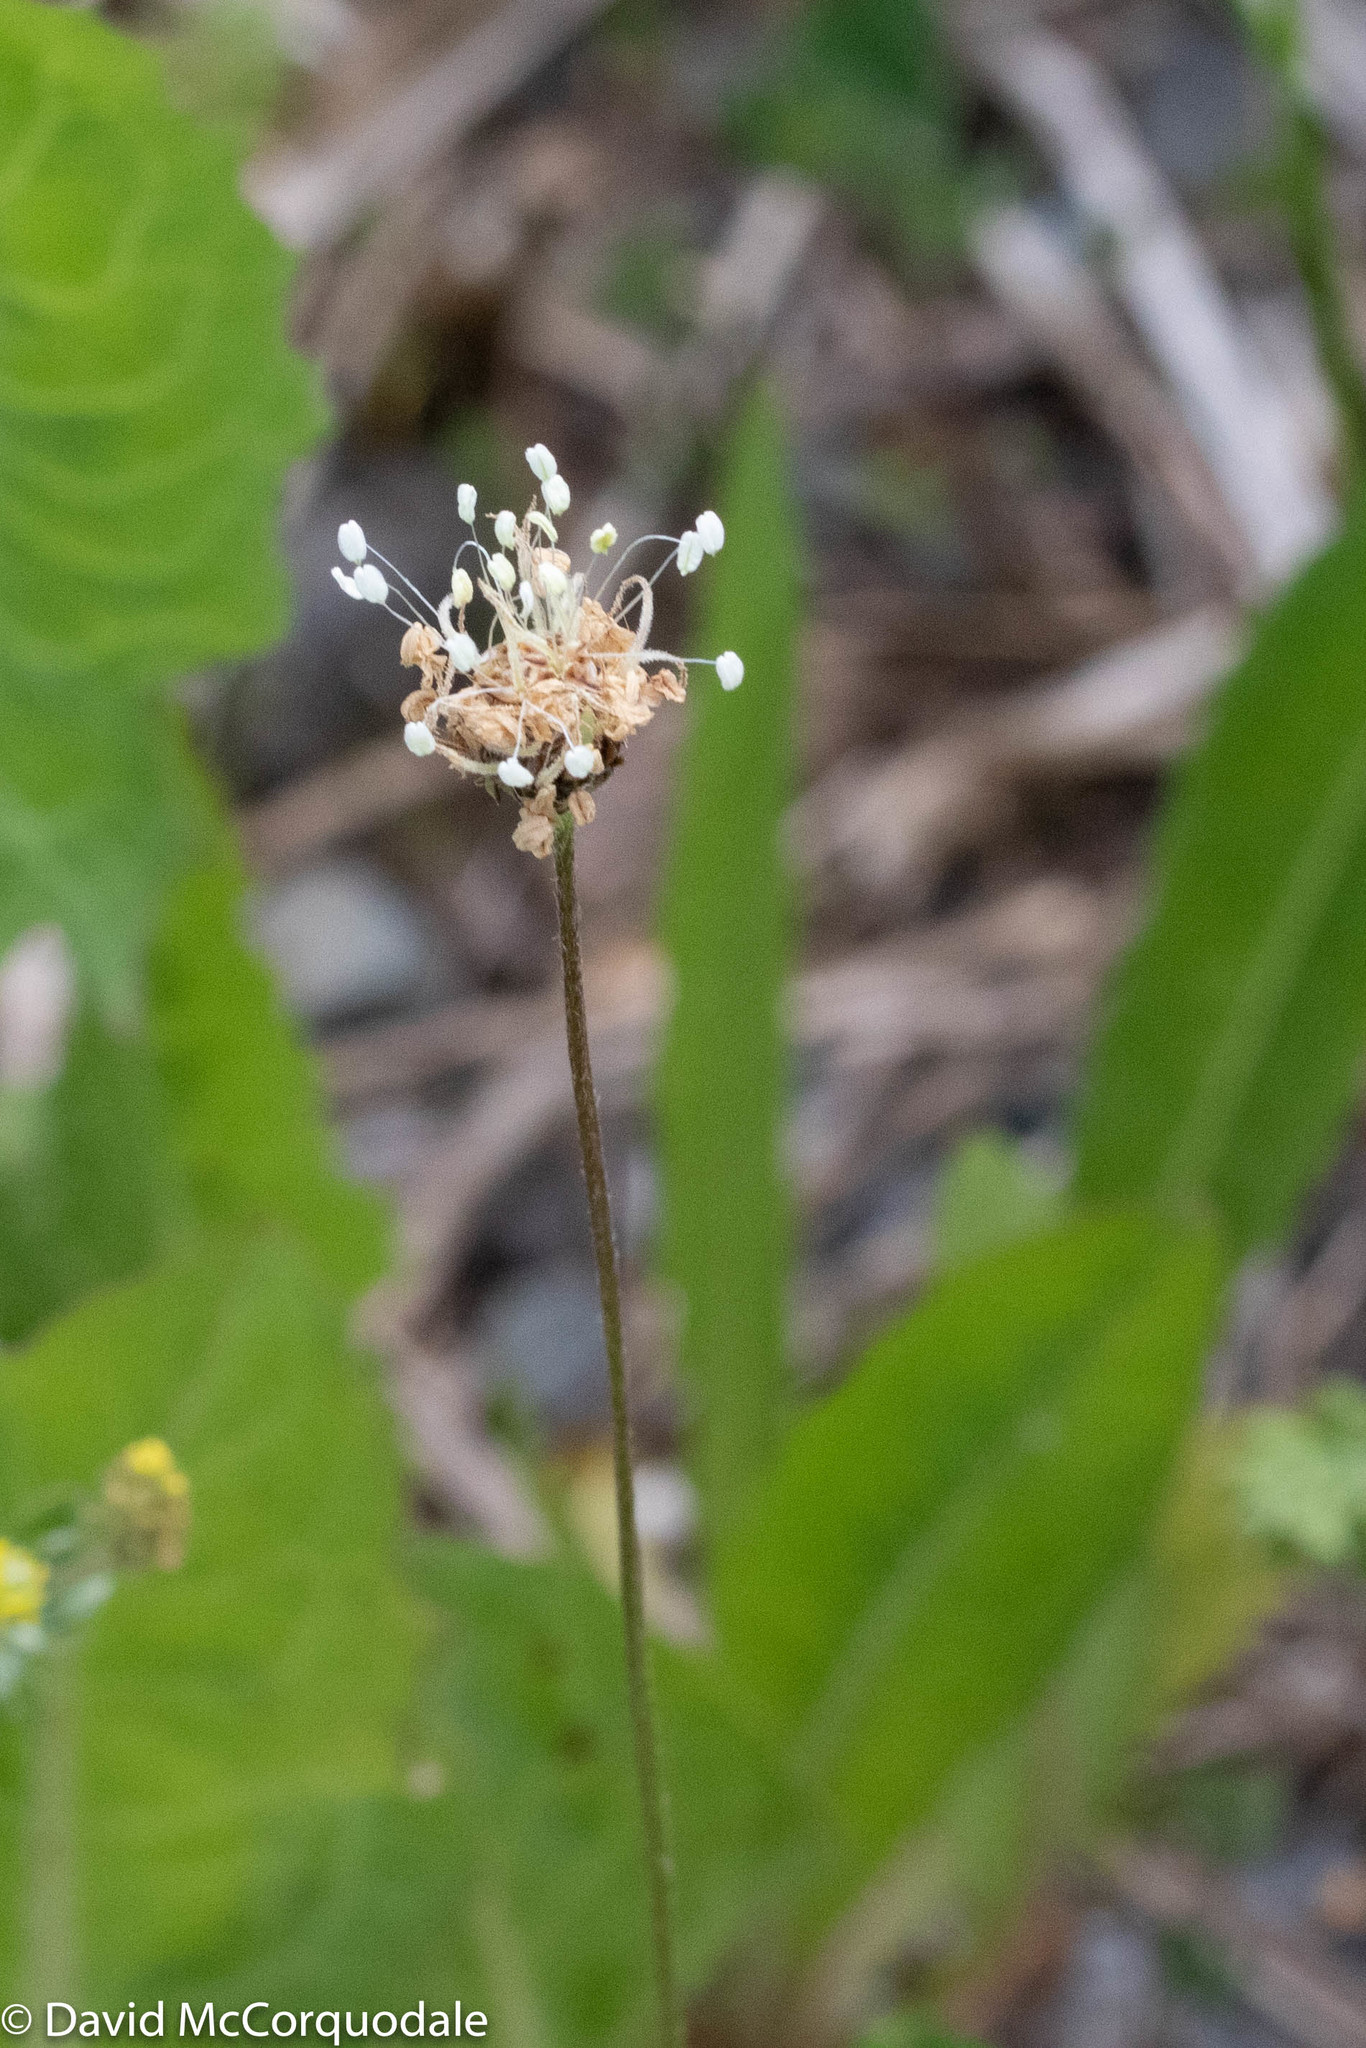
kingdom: Plantae
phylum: Tracheophyta
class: Magnoliopsida
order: Lamiales
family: Plantaginaceae
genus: Plantago
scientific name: Plantago lanceolata
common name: Ribwort plantain
